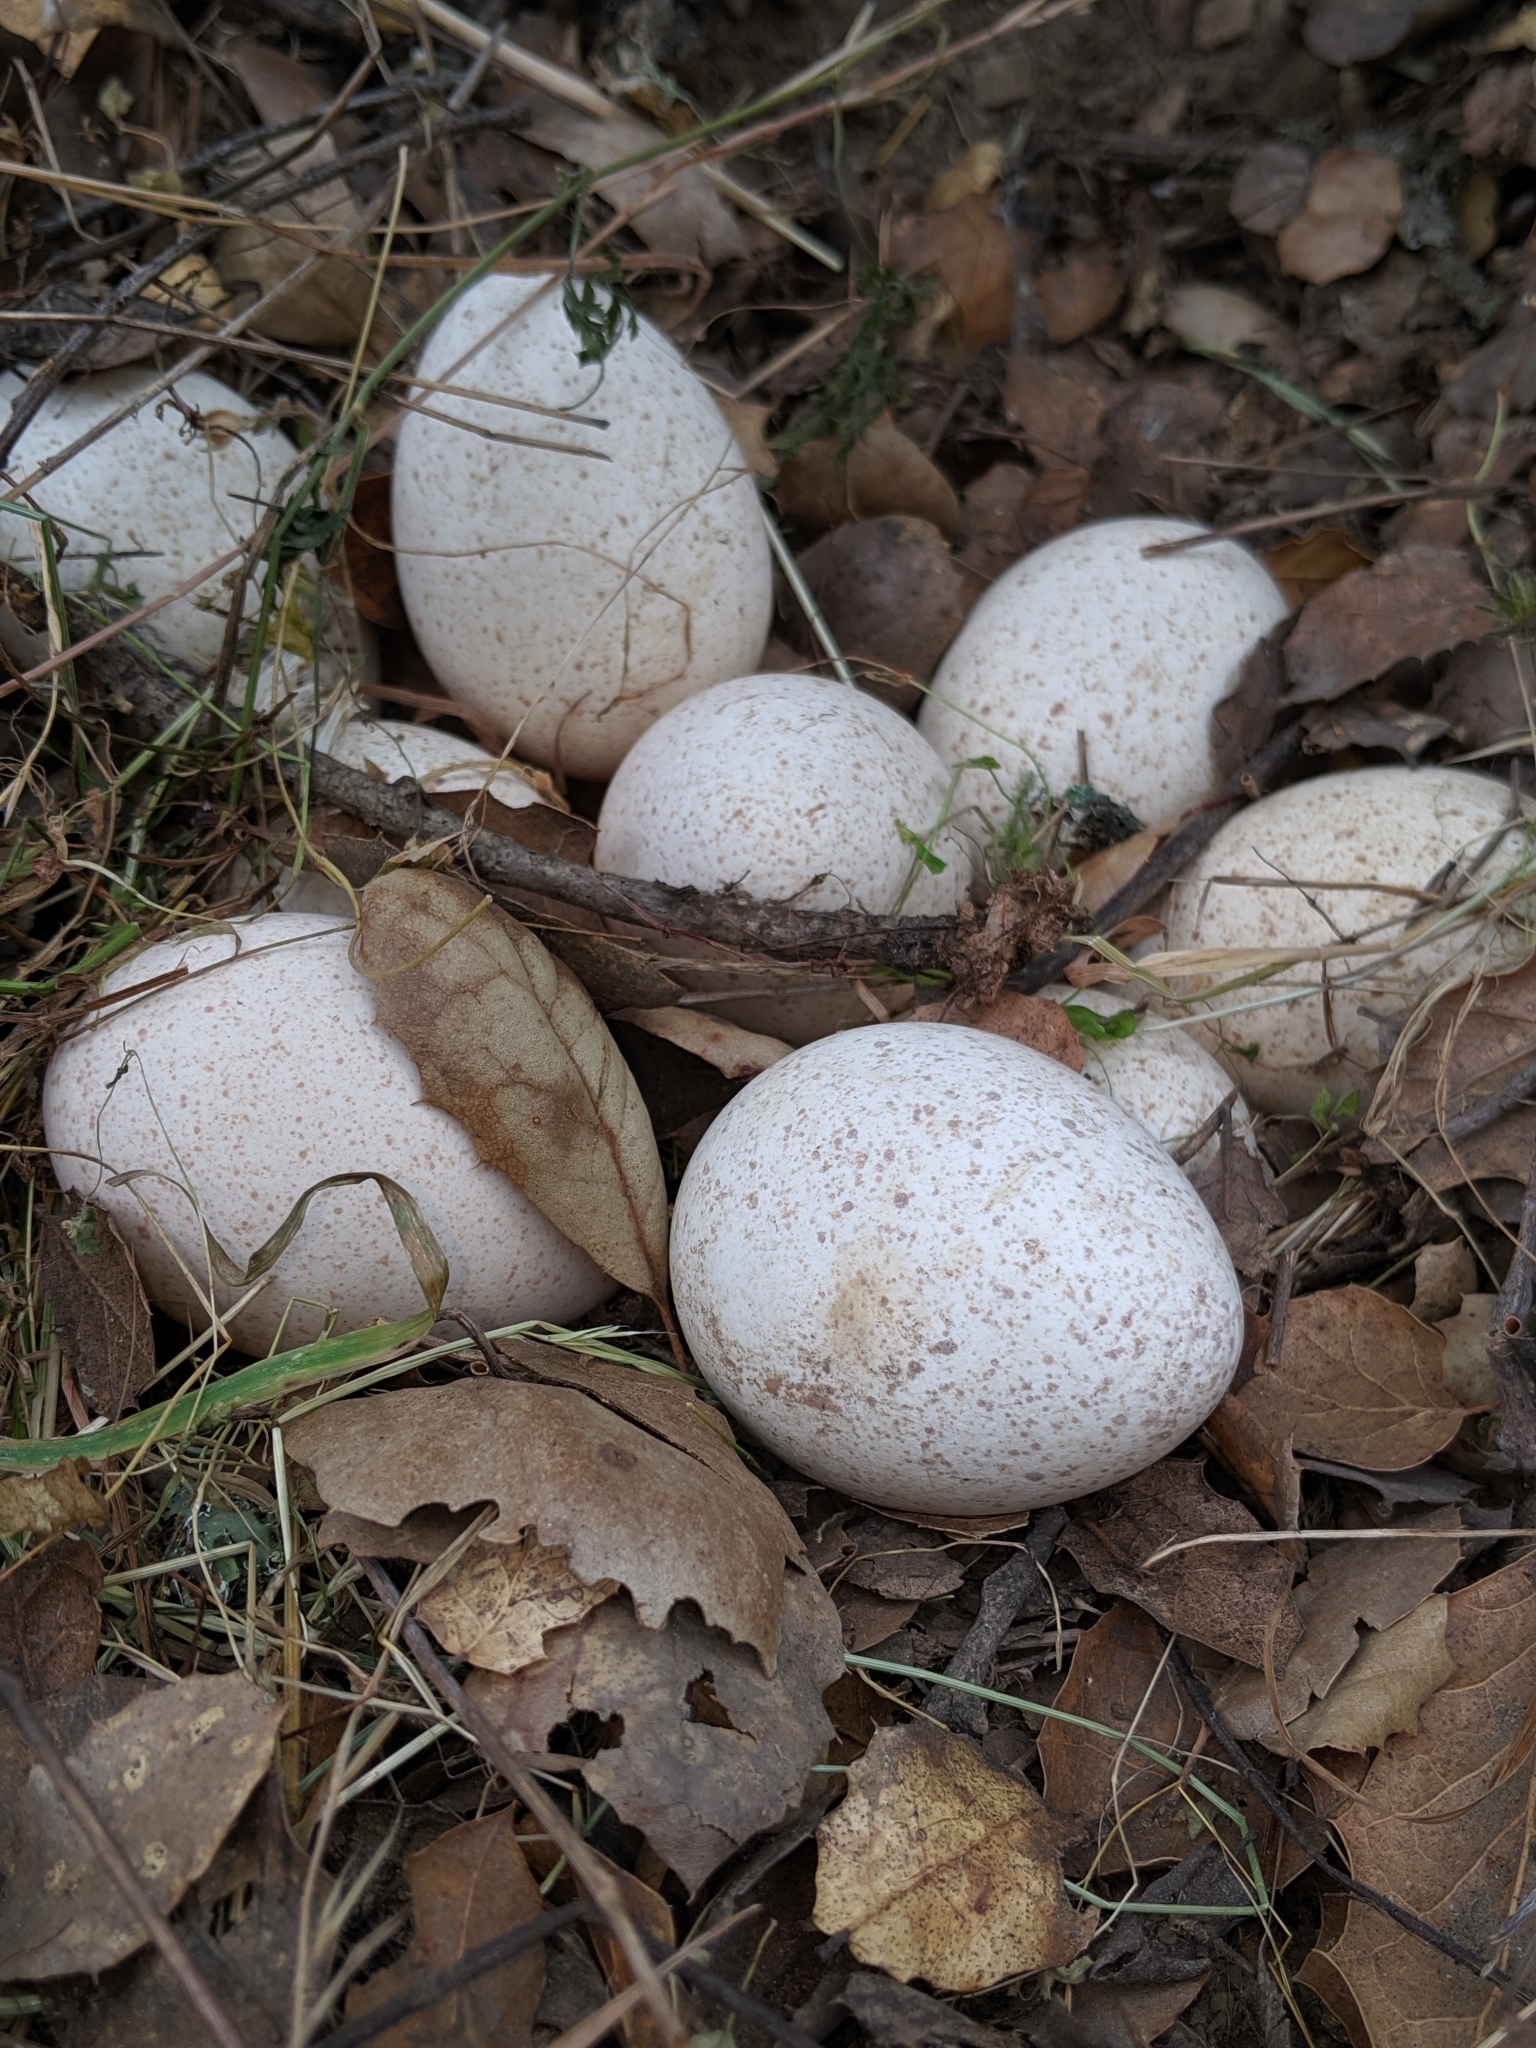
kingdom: Animalia
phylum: Chordata
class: Aves
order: Galliformes
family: Phasianidae
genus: Meleagris
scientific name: Meleagris gallopavo
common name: Wild turkey
